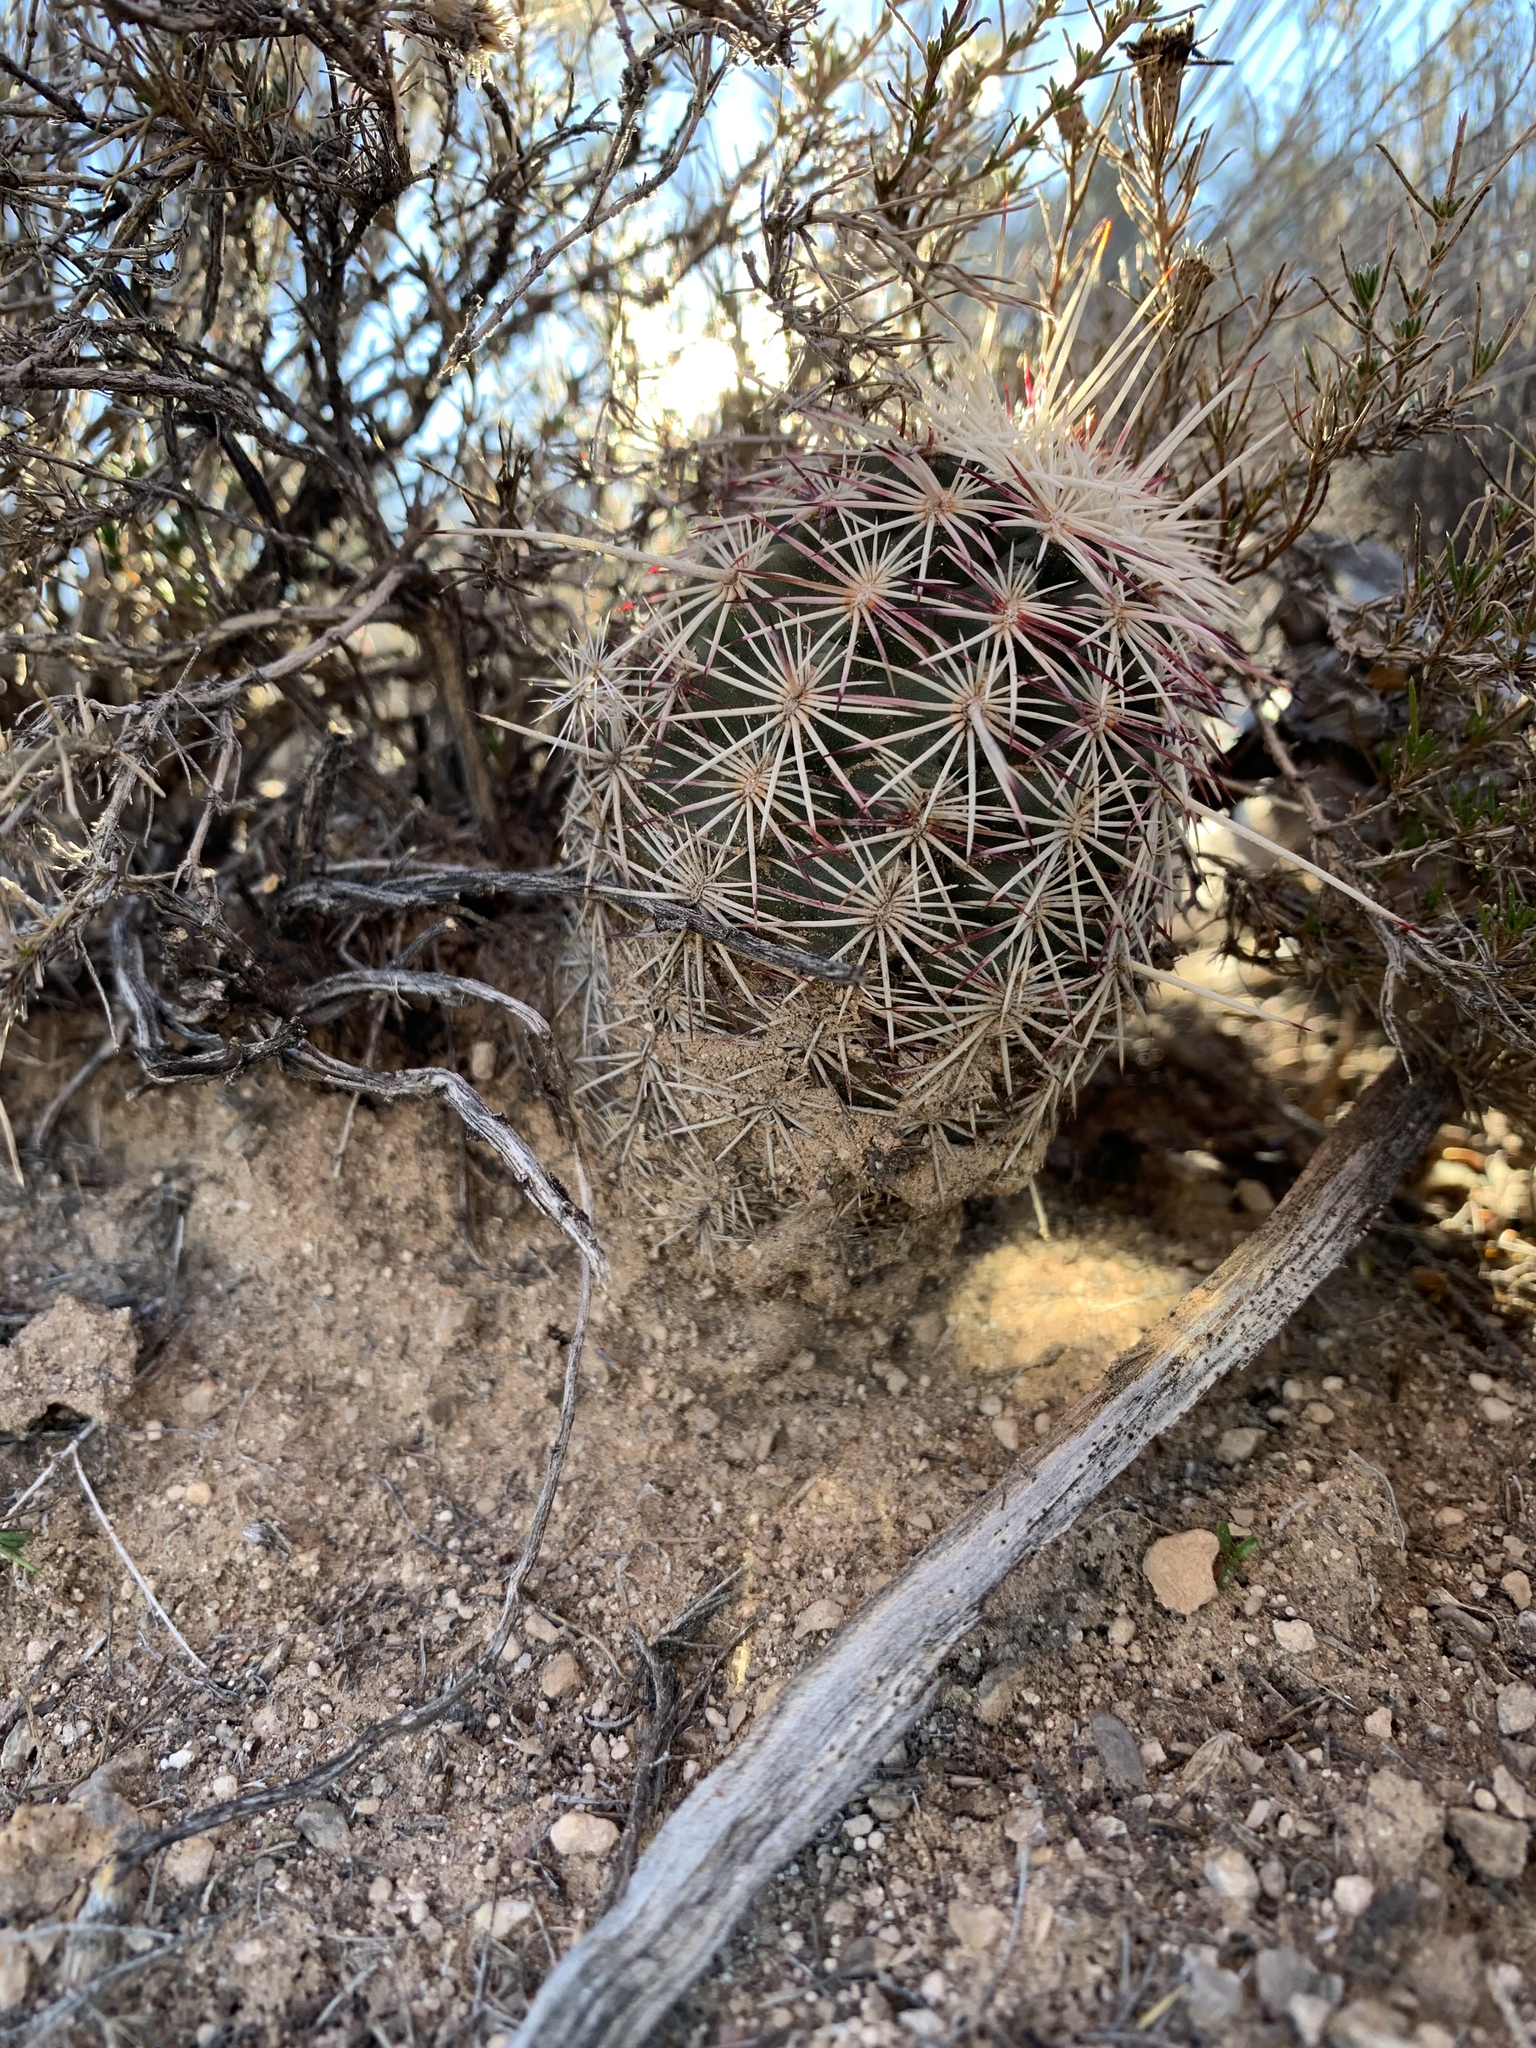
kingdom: Plantae
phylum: Tracheophyta
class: Magnoliopsida
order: Caryophyllales
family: Cactaceae
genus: Echinocereus
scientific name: Echinocereus viridiflorus
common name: Nylon hedgehog cactus
